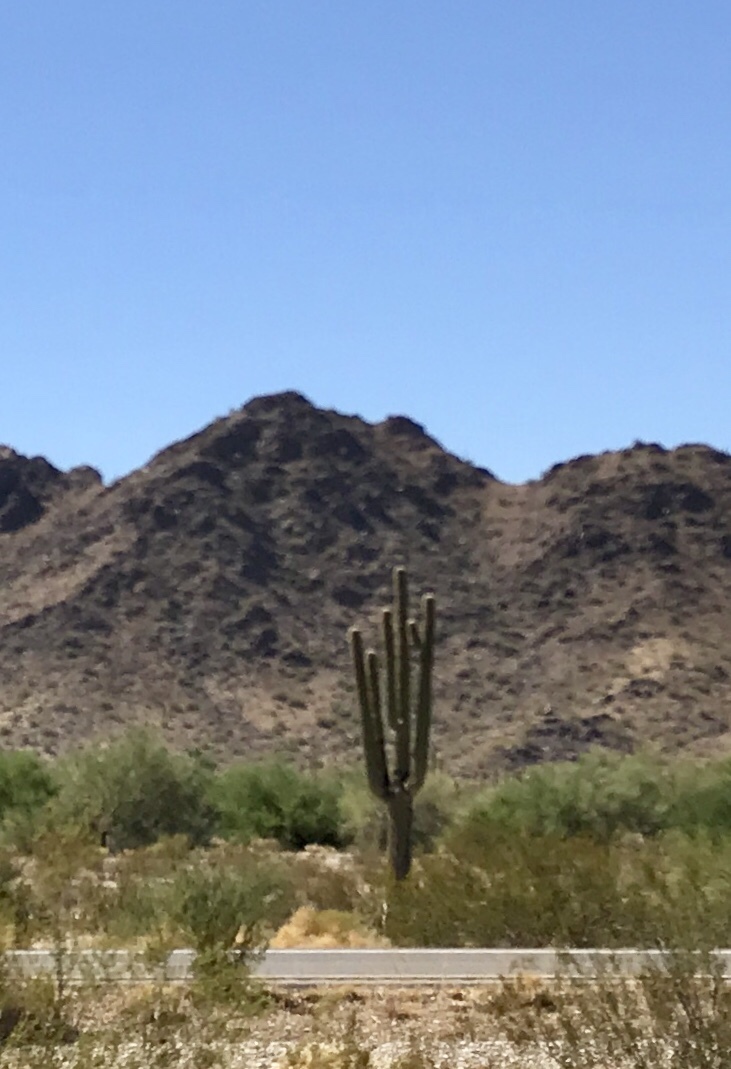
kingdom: Plantae
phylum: Tracheophyta
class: Magnoliopsida
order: Caryophyllales
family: Cactaceae
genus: Carnegiea
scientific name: Carnegiea gigantea
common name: Saguaro
